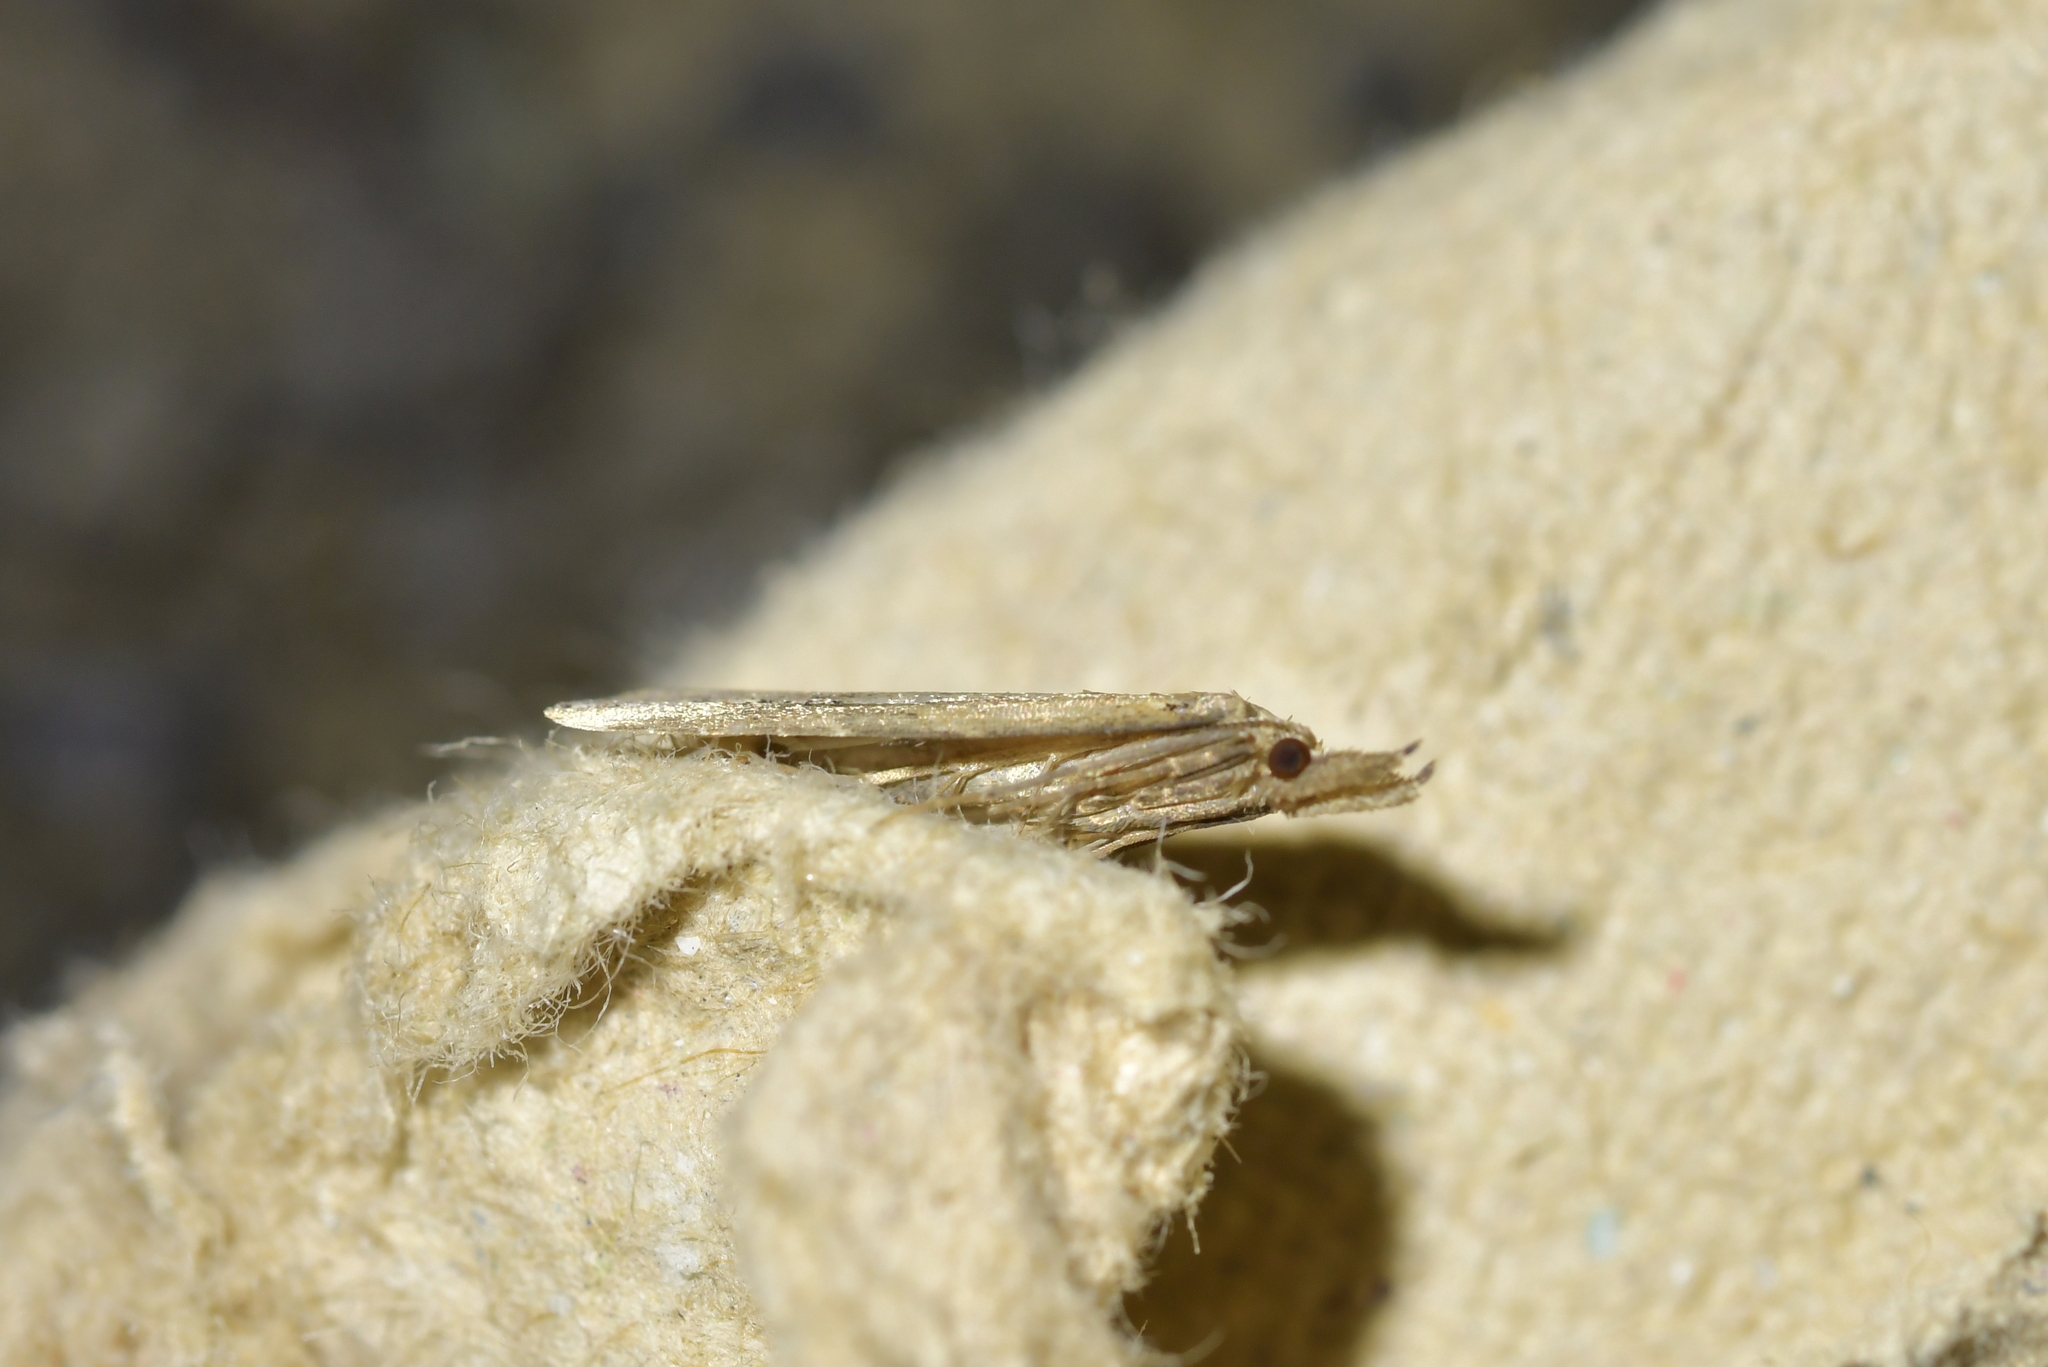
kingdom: Animalia
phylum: Arthropoda
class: Insecta
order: Lepidoptera
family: Erebidae
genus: Schrankia
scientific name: Schrankia costaestrigalis
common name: Pinion-streaked snout
